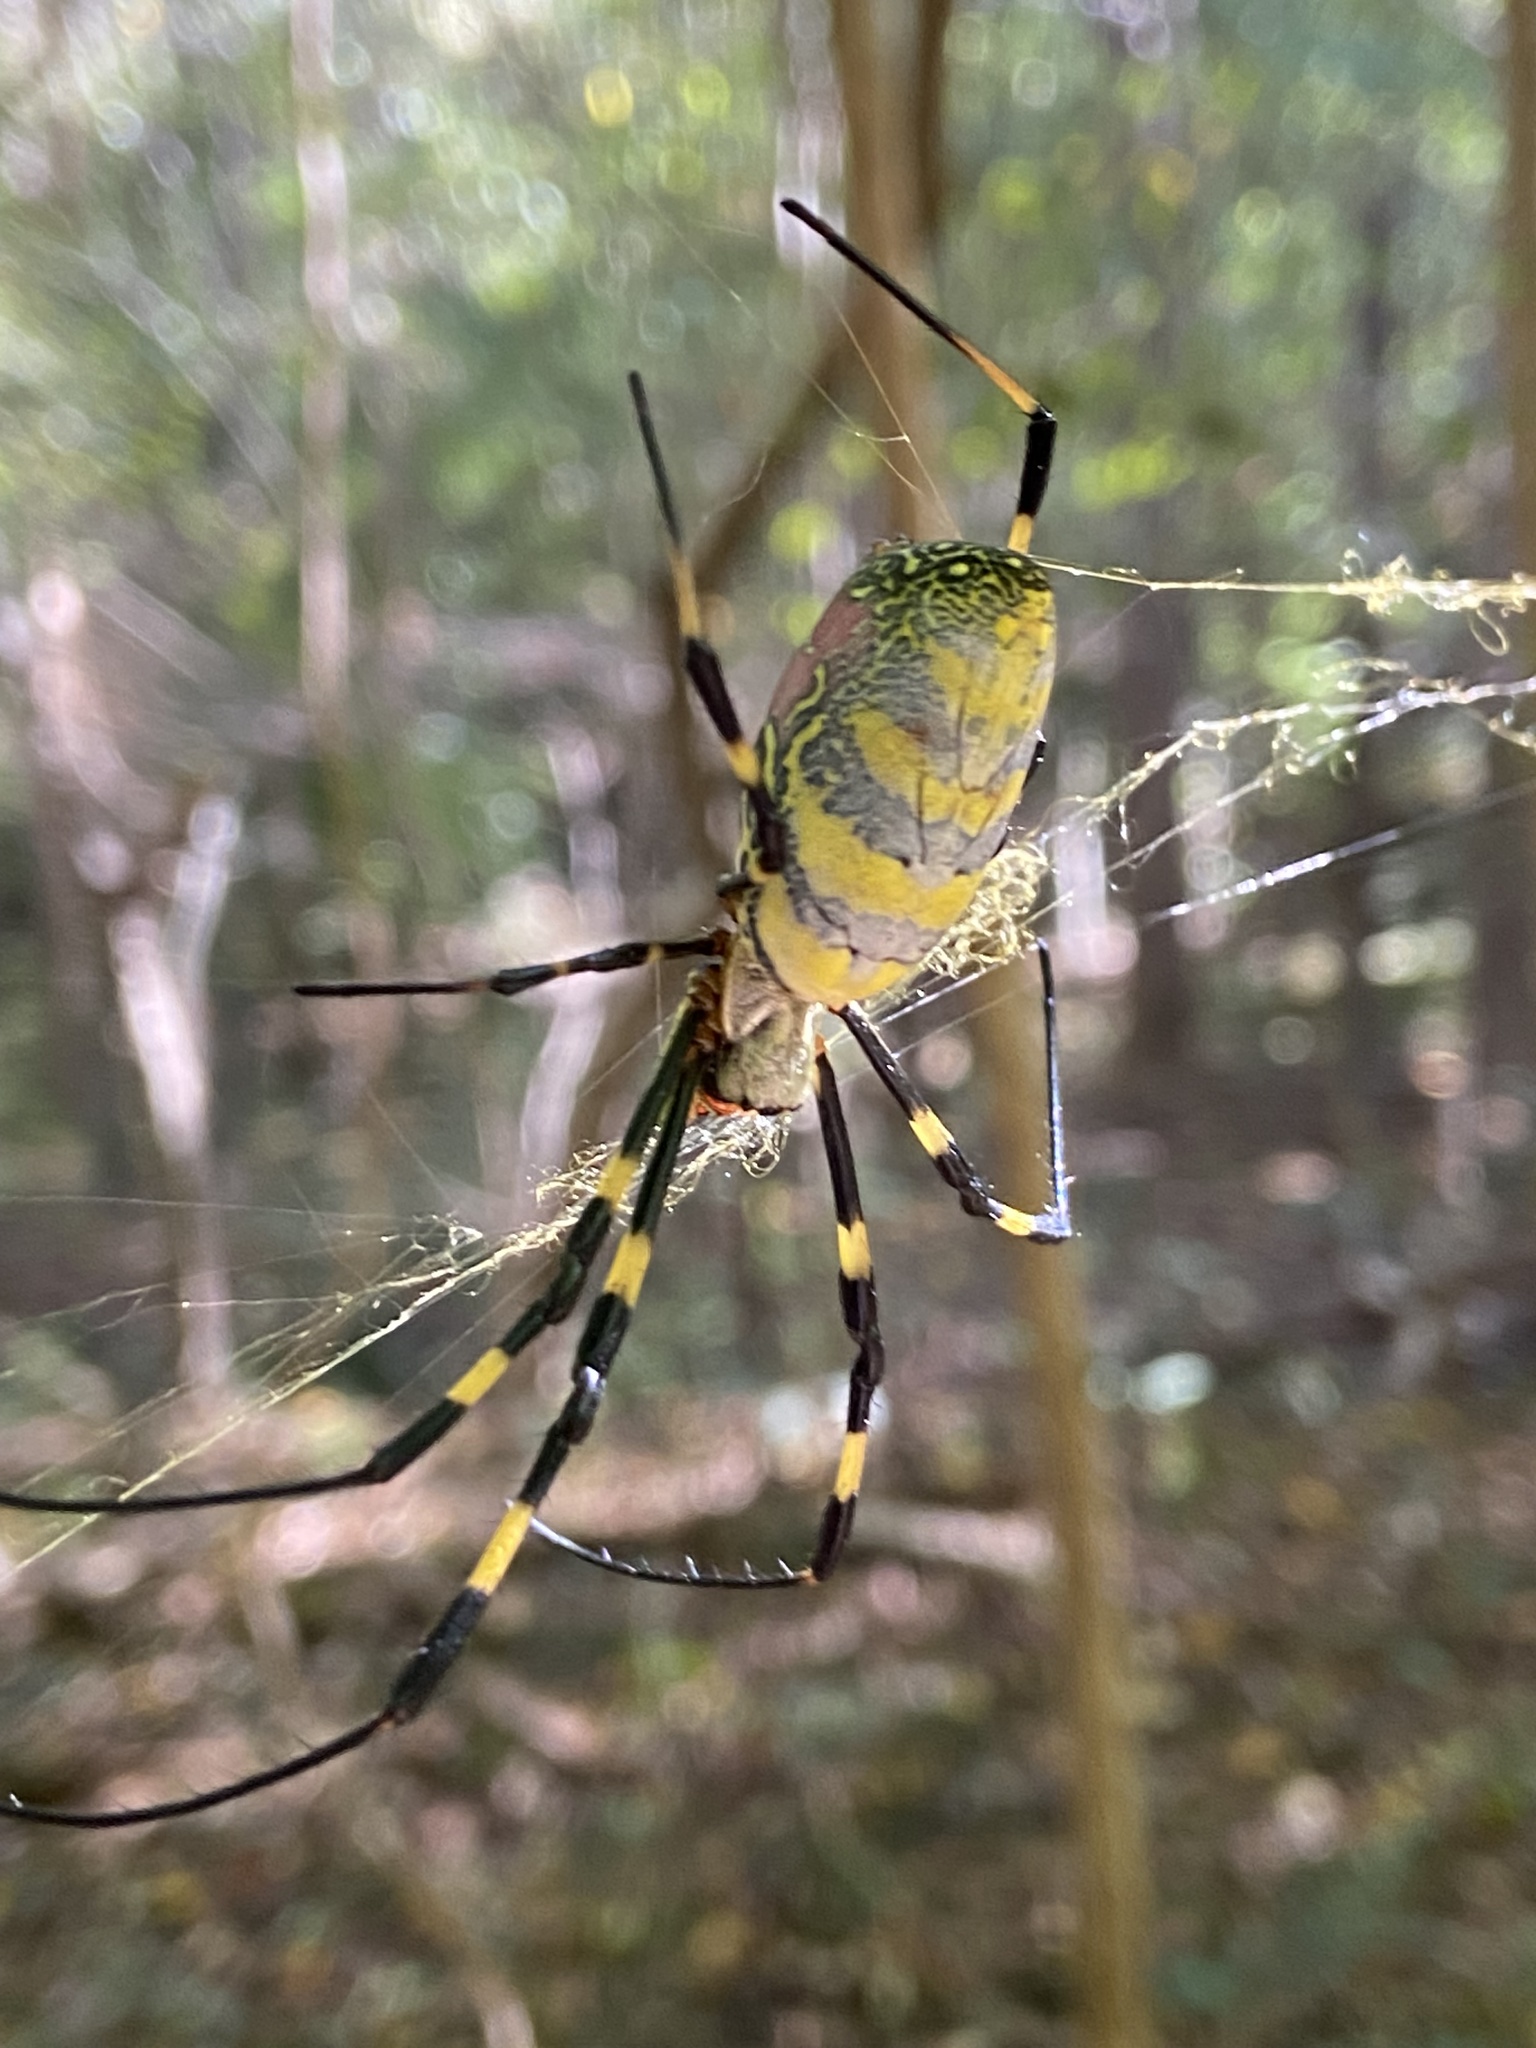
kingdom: Animalia
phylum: Arthropoda
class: Arachnida
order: Araneae
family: Araneidae
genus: Trichonephila
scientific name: Trichonephila clavata
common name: Jorō spider
